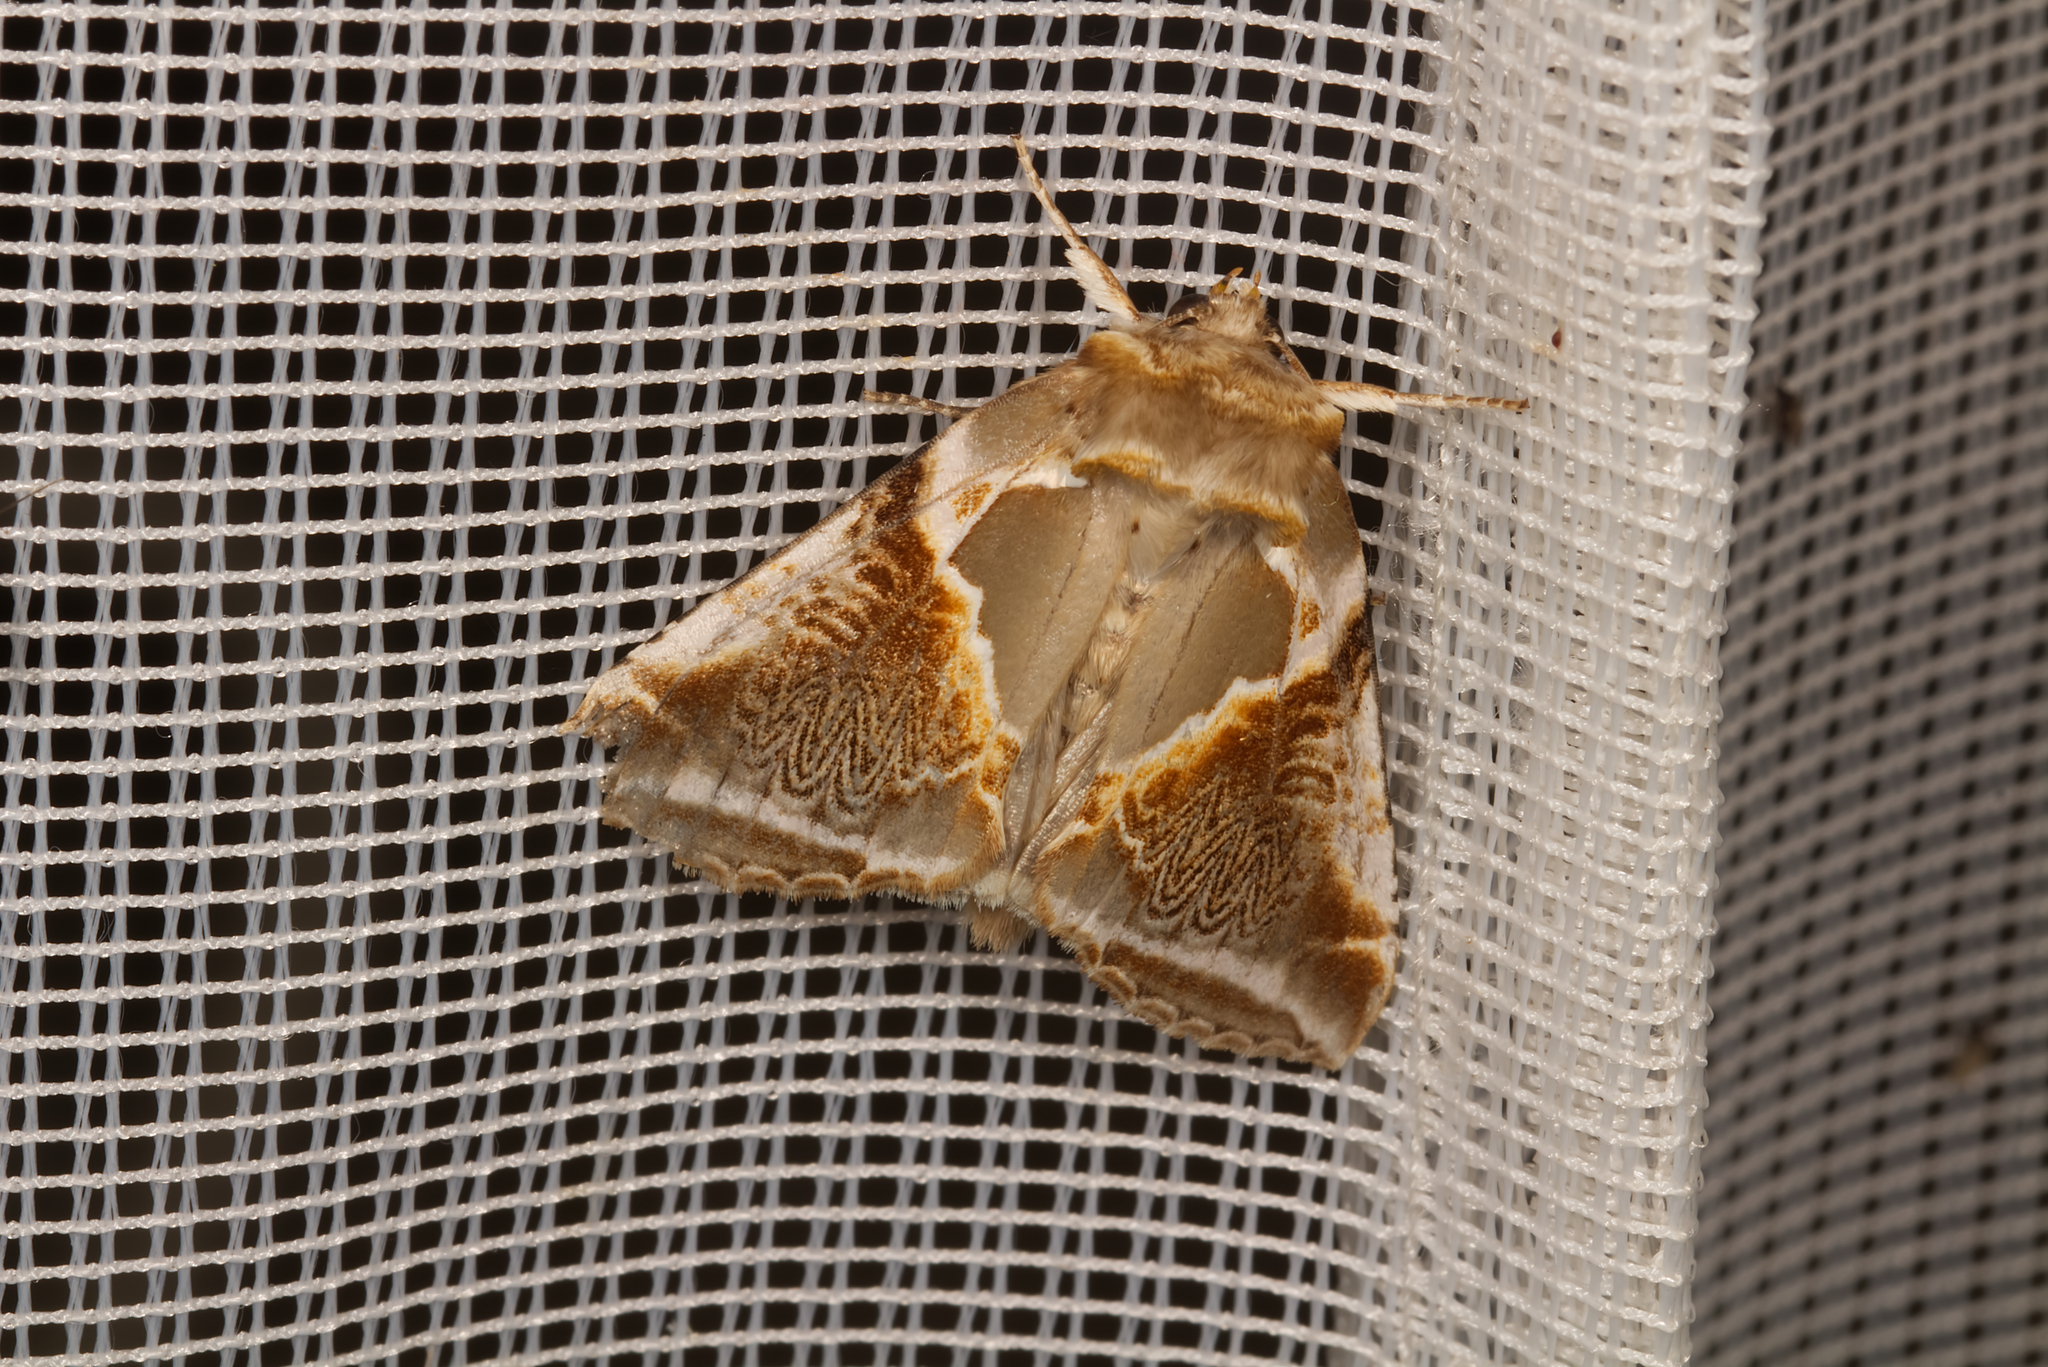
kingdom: Animalia
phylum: Arthropoda
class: Insecta
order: Lepidoptera
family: Drepanidae
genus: Habrosyne
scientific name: Habrosyne pyritoides
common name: Buff arches
